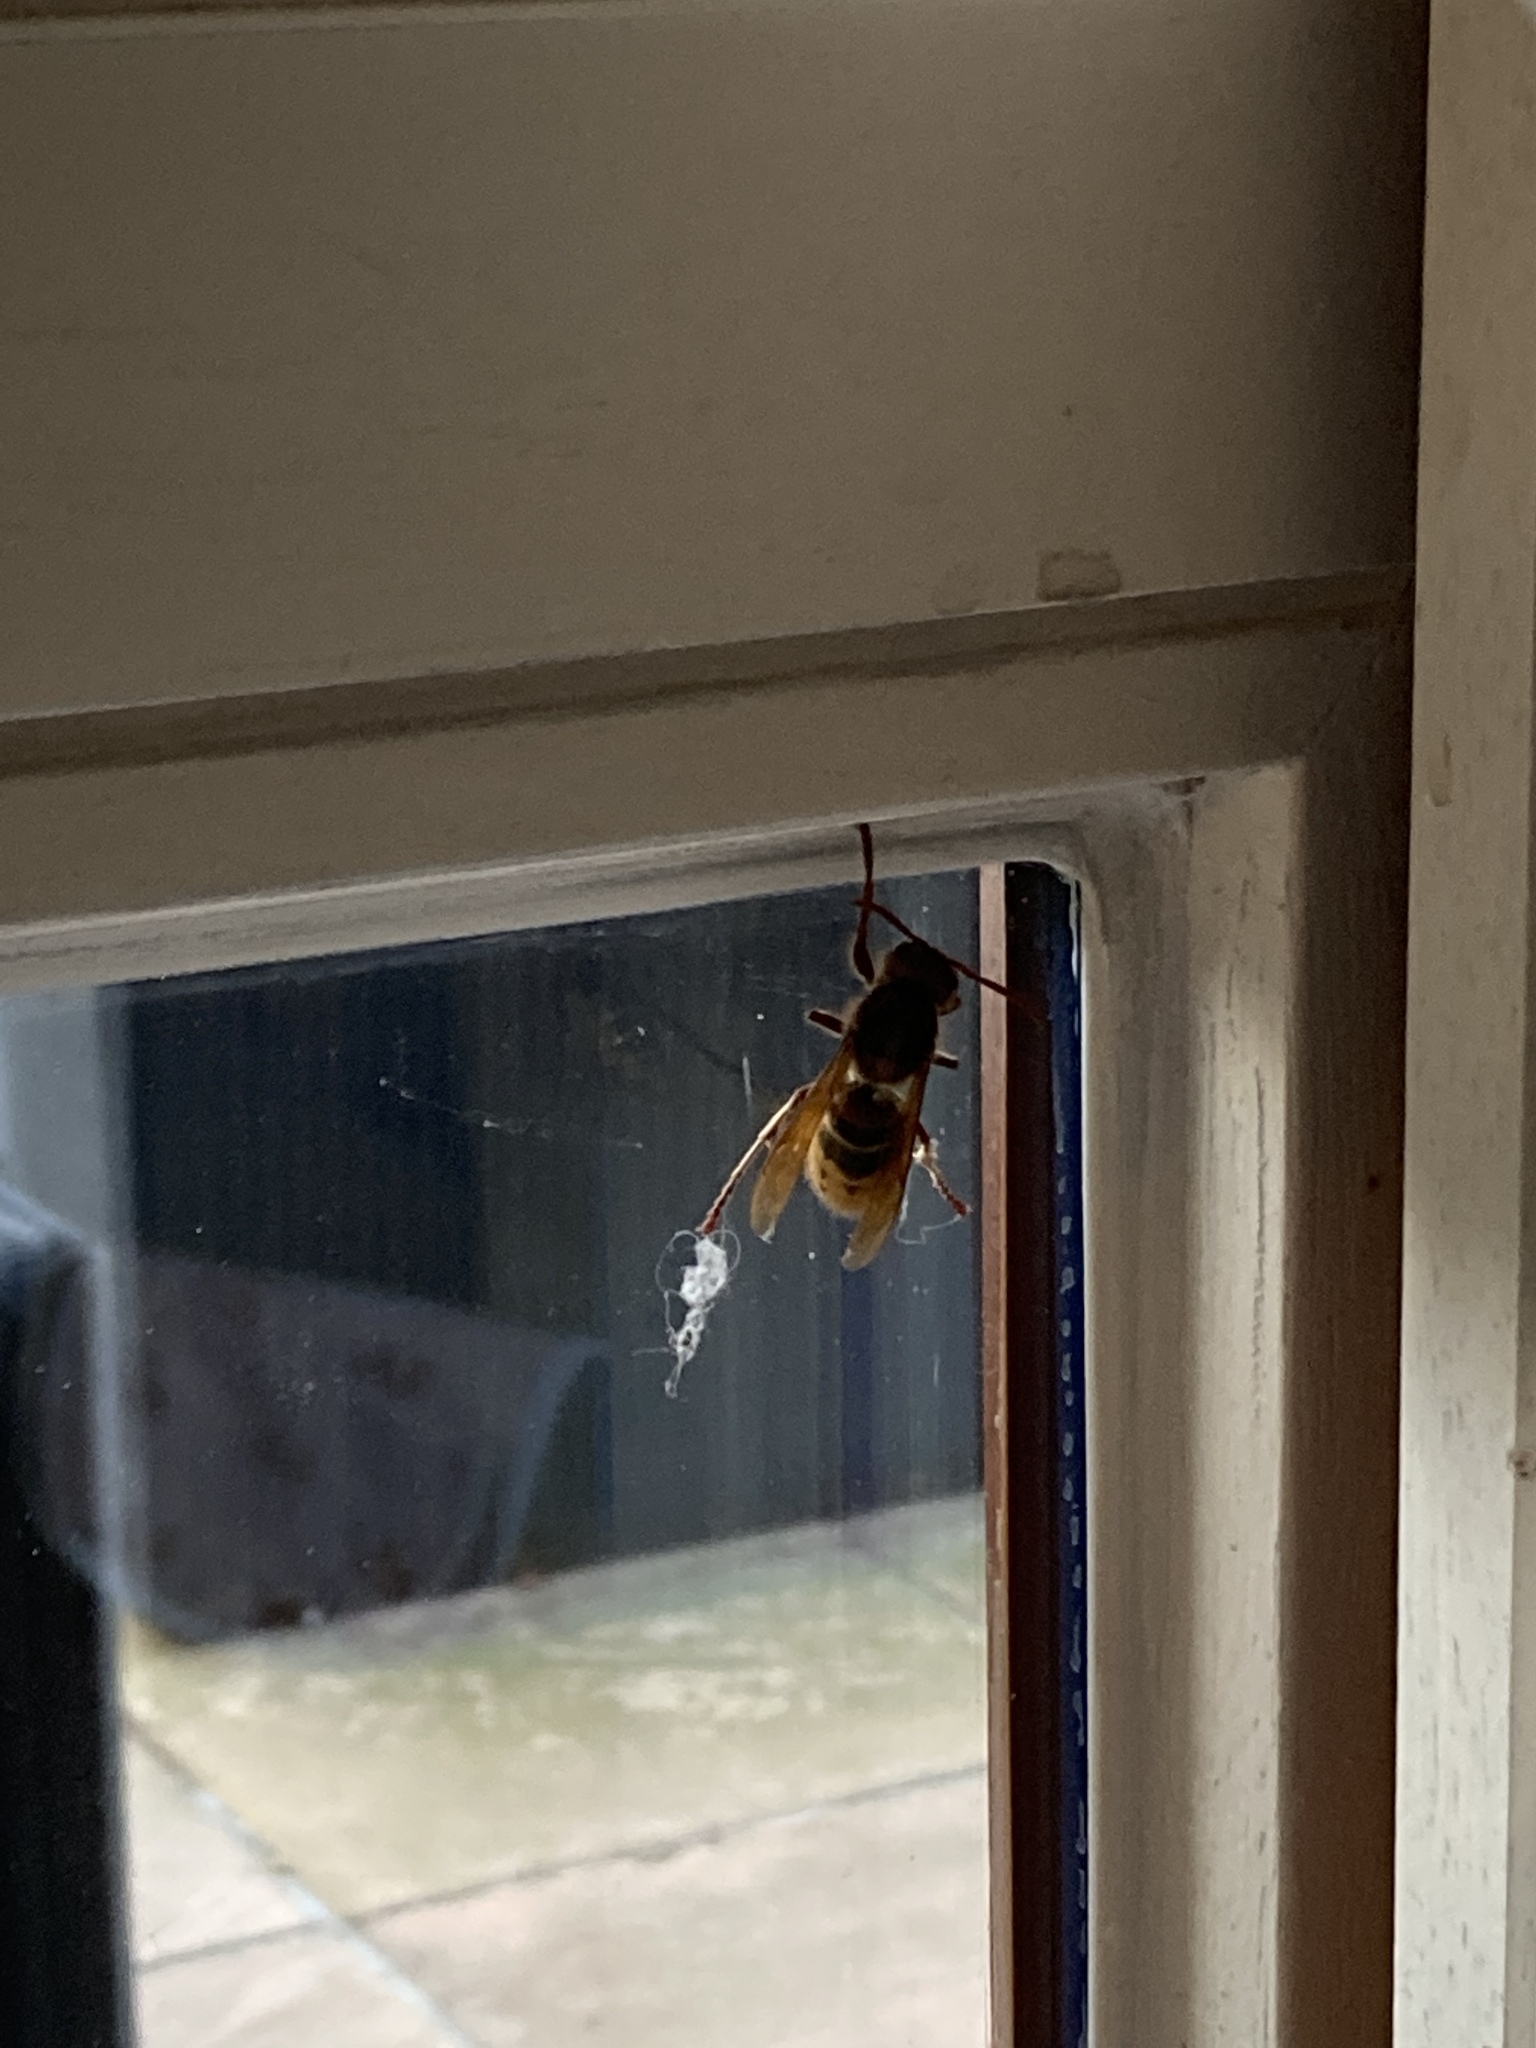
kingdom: Animalia
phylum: Arthropoda
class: Insecta
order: Hymenoptera
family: Vespidae
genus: Vespa
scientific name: Vespa crabro
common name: Hornet
